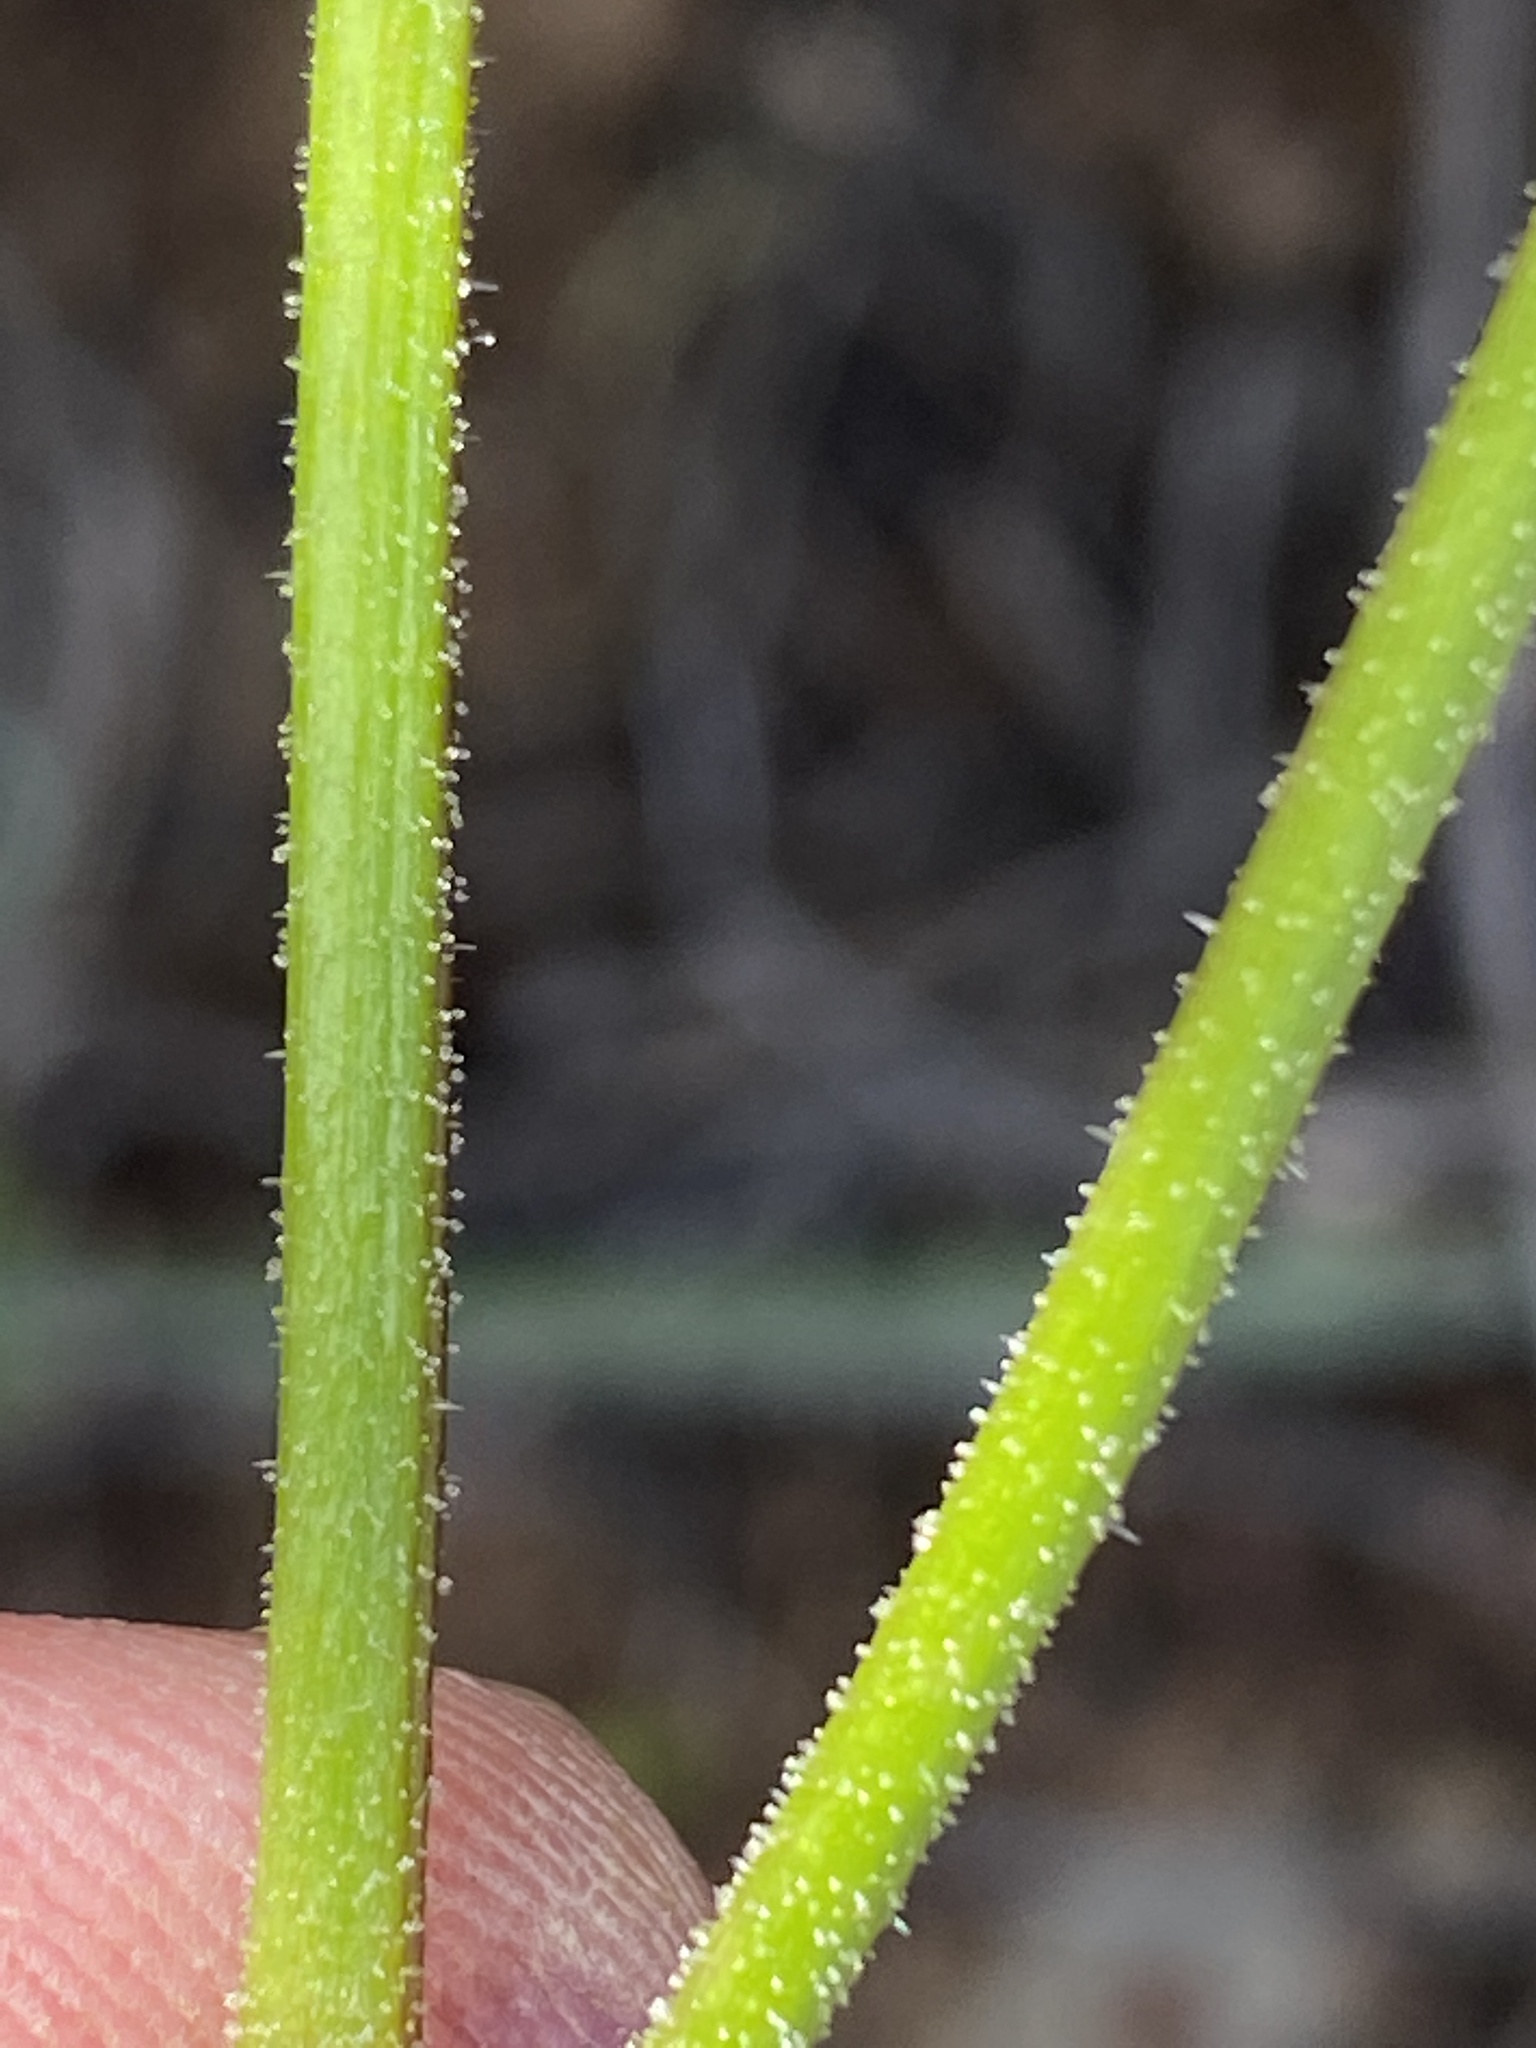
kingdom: Plantae
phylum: Tracheophyta
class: Magnoliopsida
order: Geraniales
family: Geraniaceae
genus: Pelargonium
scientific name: Pelargonium tetragonum
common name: Square-stack crane's-bill
